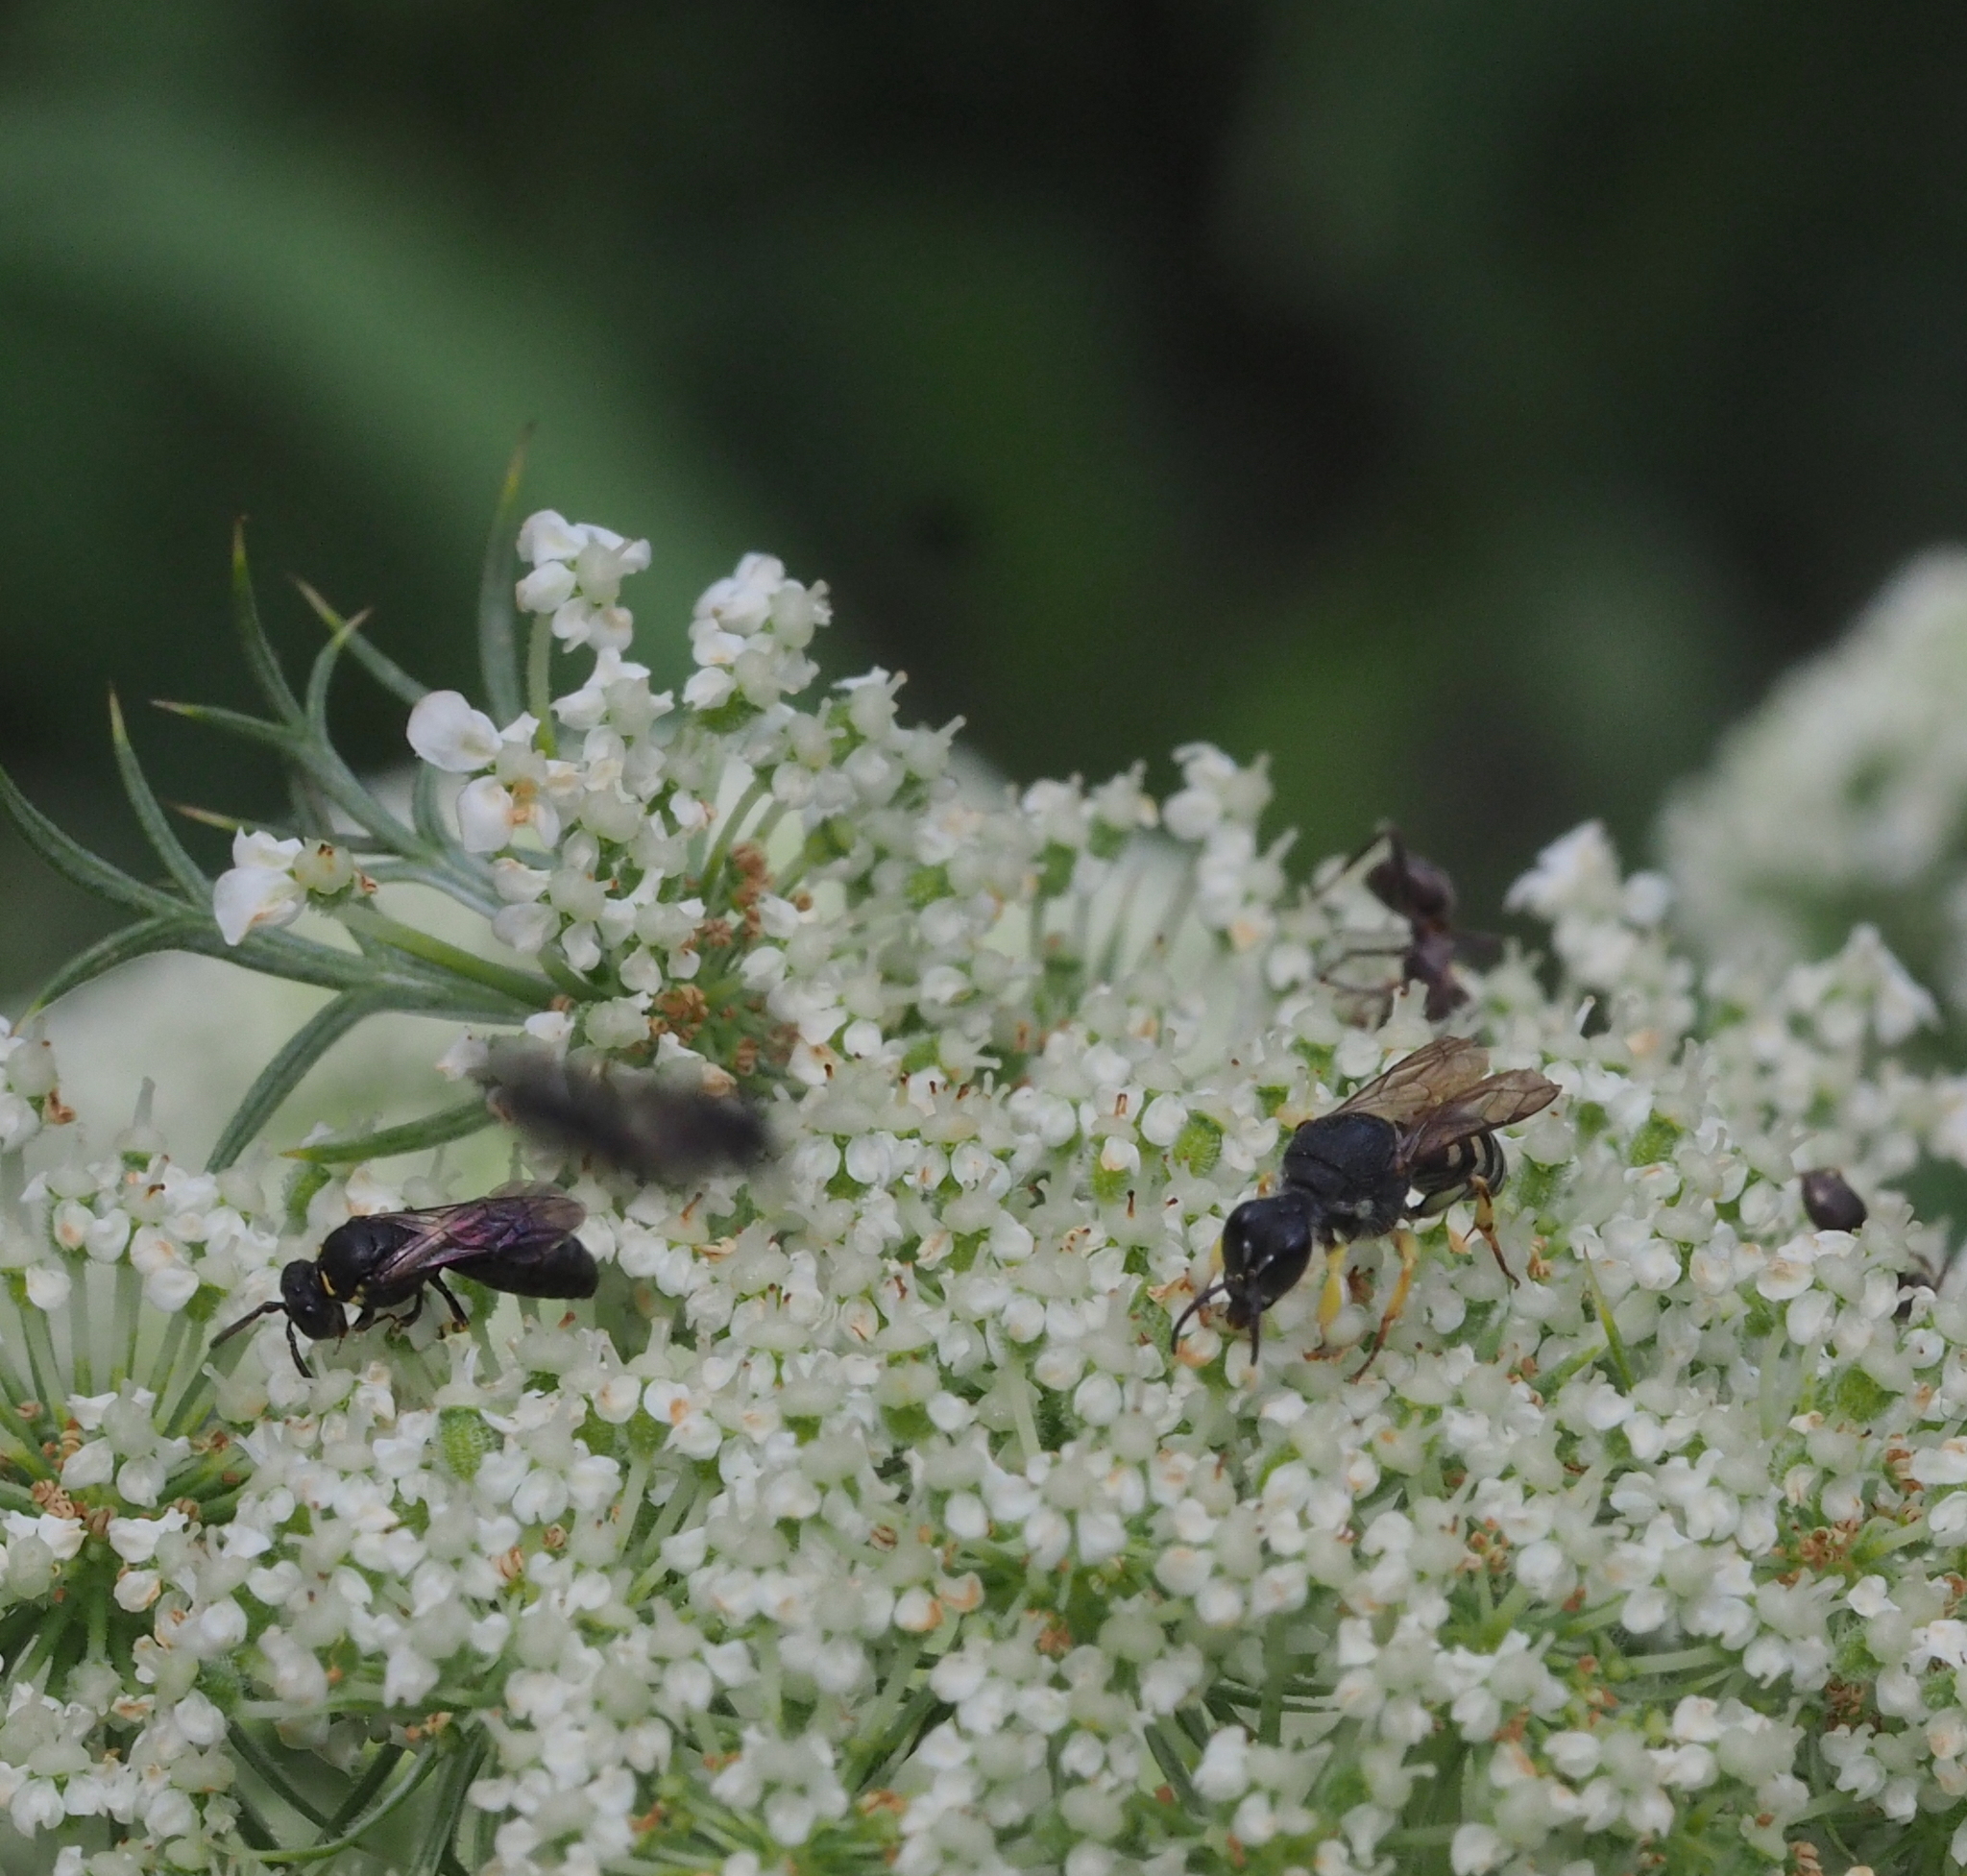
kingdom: Animalia
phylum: Arthropoda
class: Insecta
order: Hymenoptera
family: Crabronidae
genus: Lestica
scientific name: Lestica clypeata
